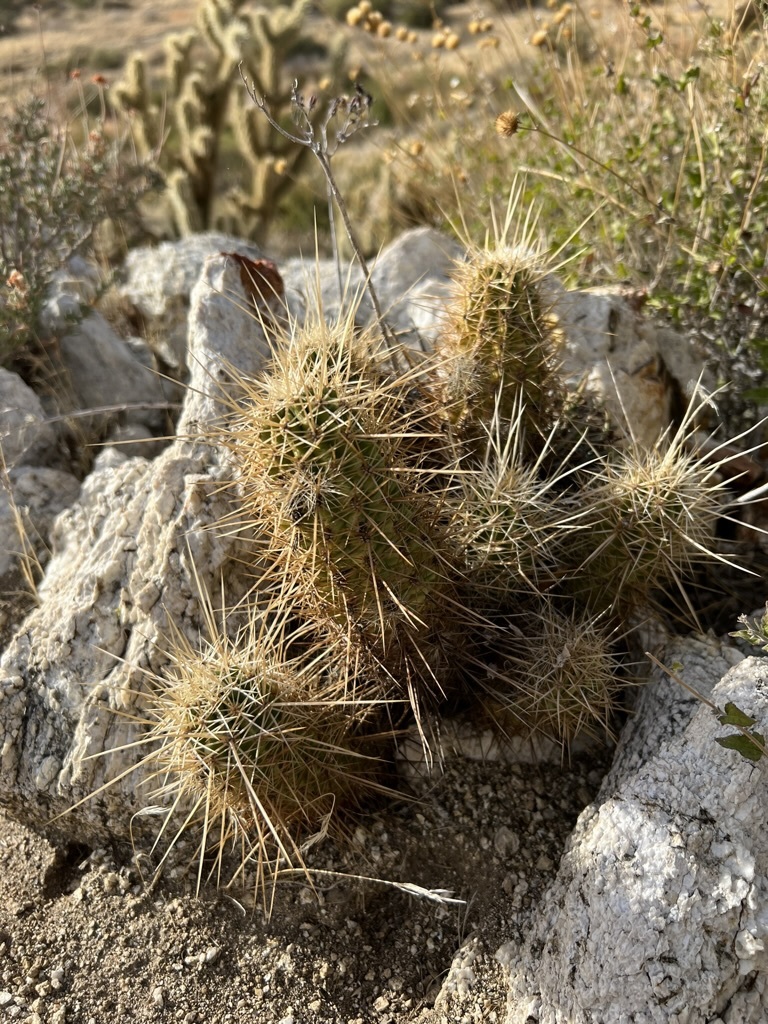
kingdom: Plantae
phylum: Tracheophyta
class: Magnoliopsida
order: Caryophyllales
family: Cactaceae
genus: Echinocereus
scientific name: Echinocereus engelmannii
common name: Engelmann's hedgehog cactus
